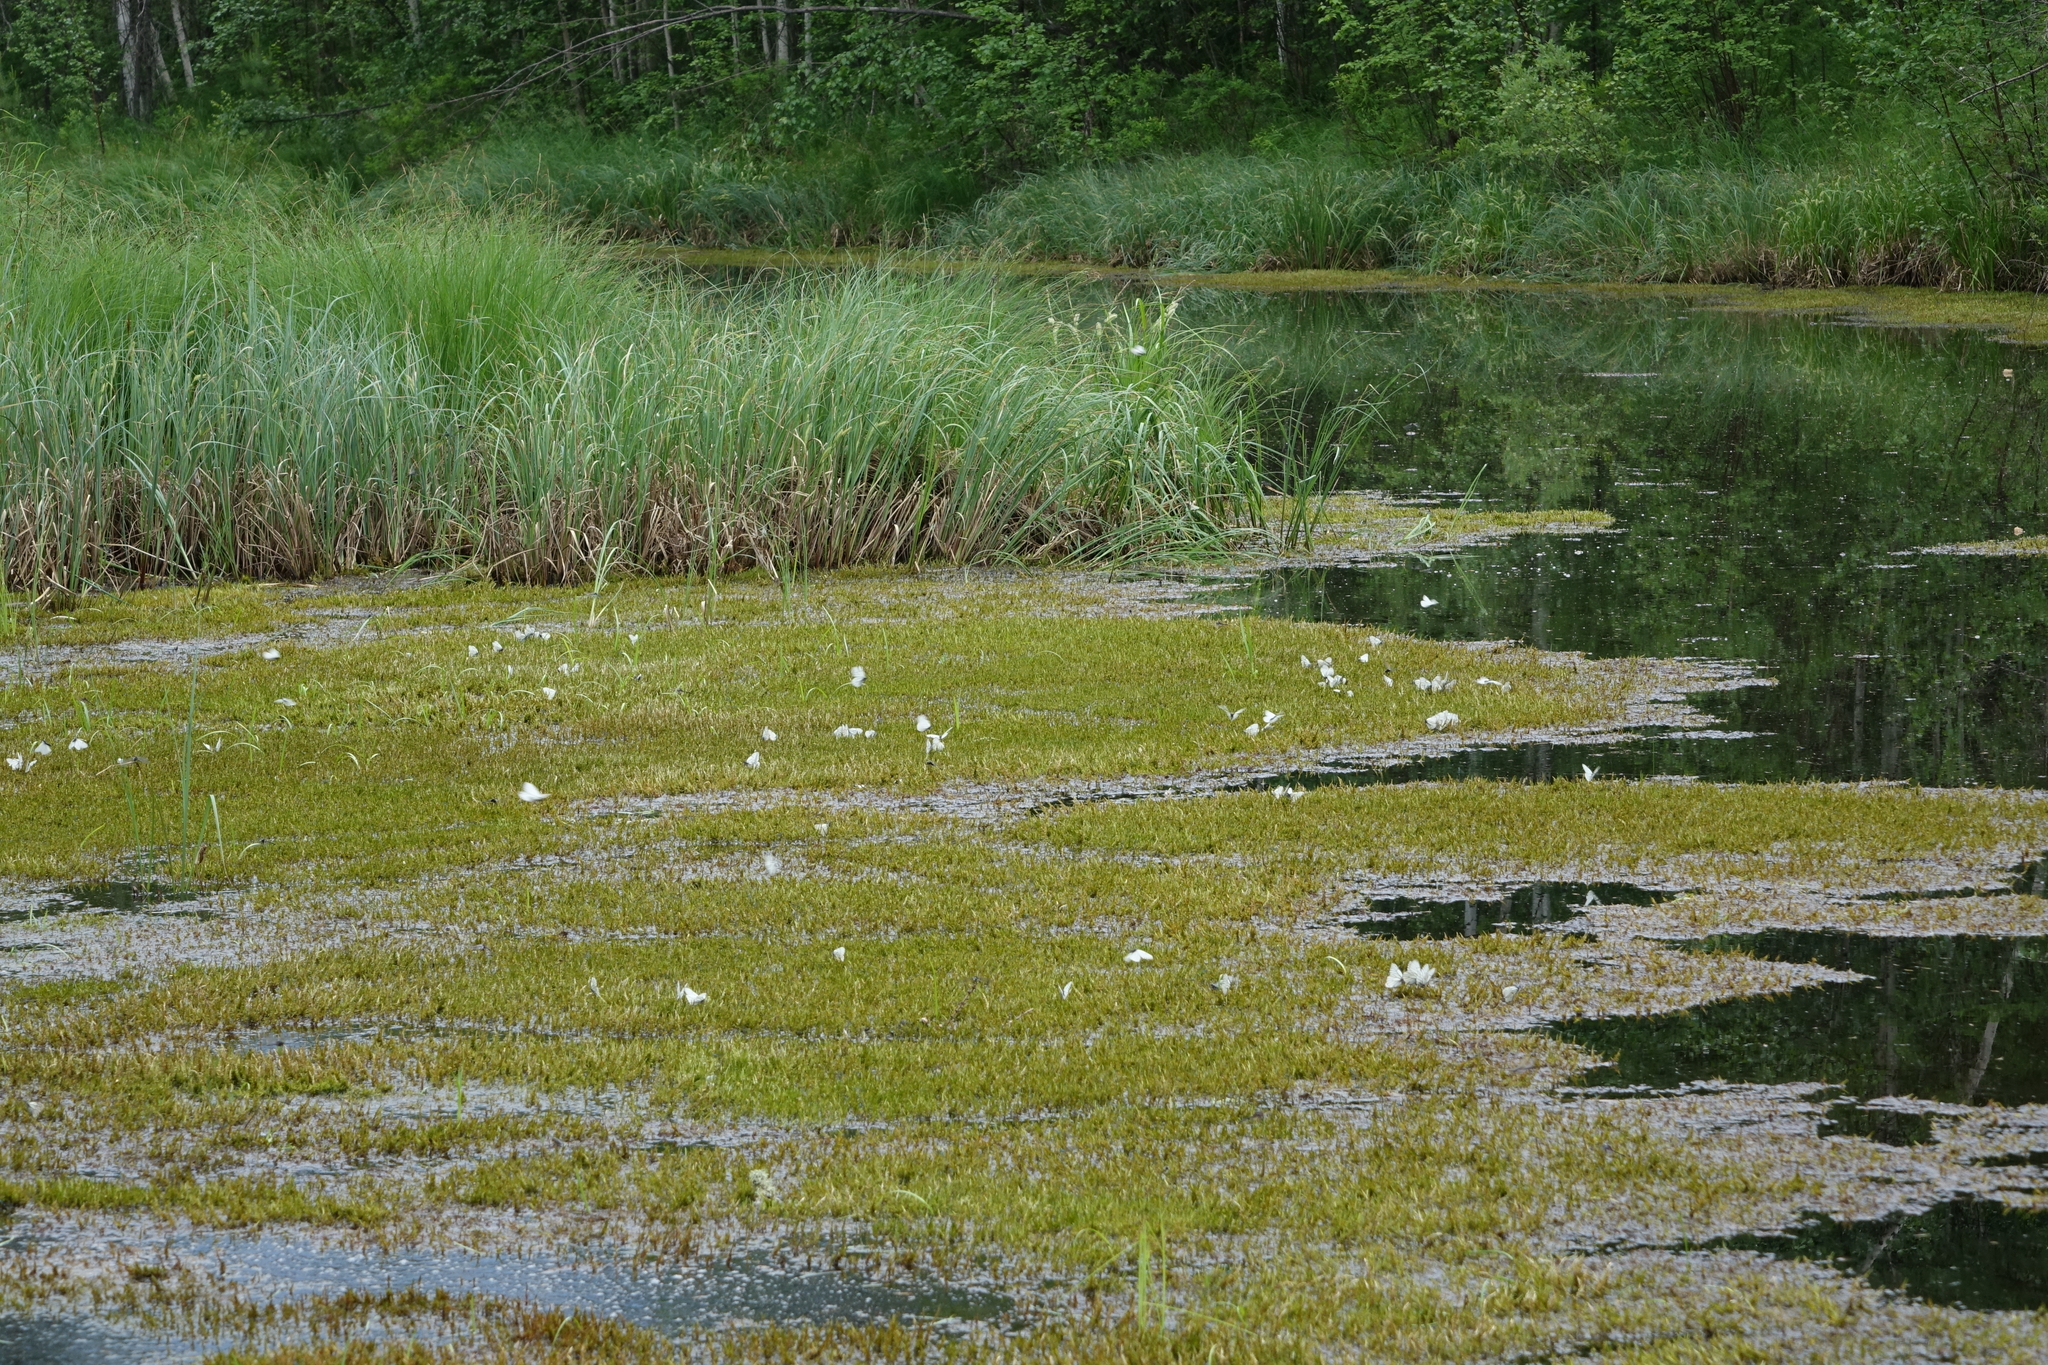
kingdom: Animalia
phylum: Arthropoda
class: Insecta
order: Lepidoptera
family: Pieridae
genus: Aporia
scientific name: Aporia crataegi
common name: Black-veined white
